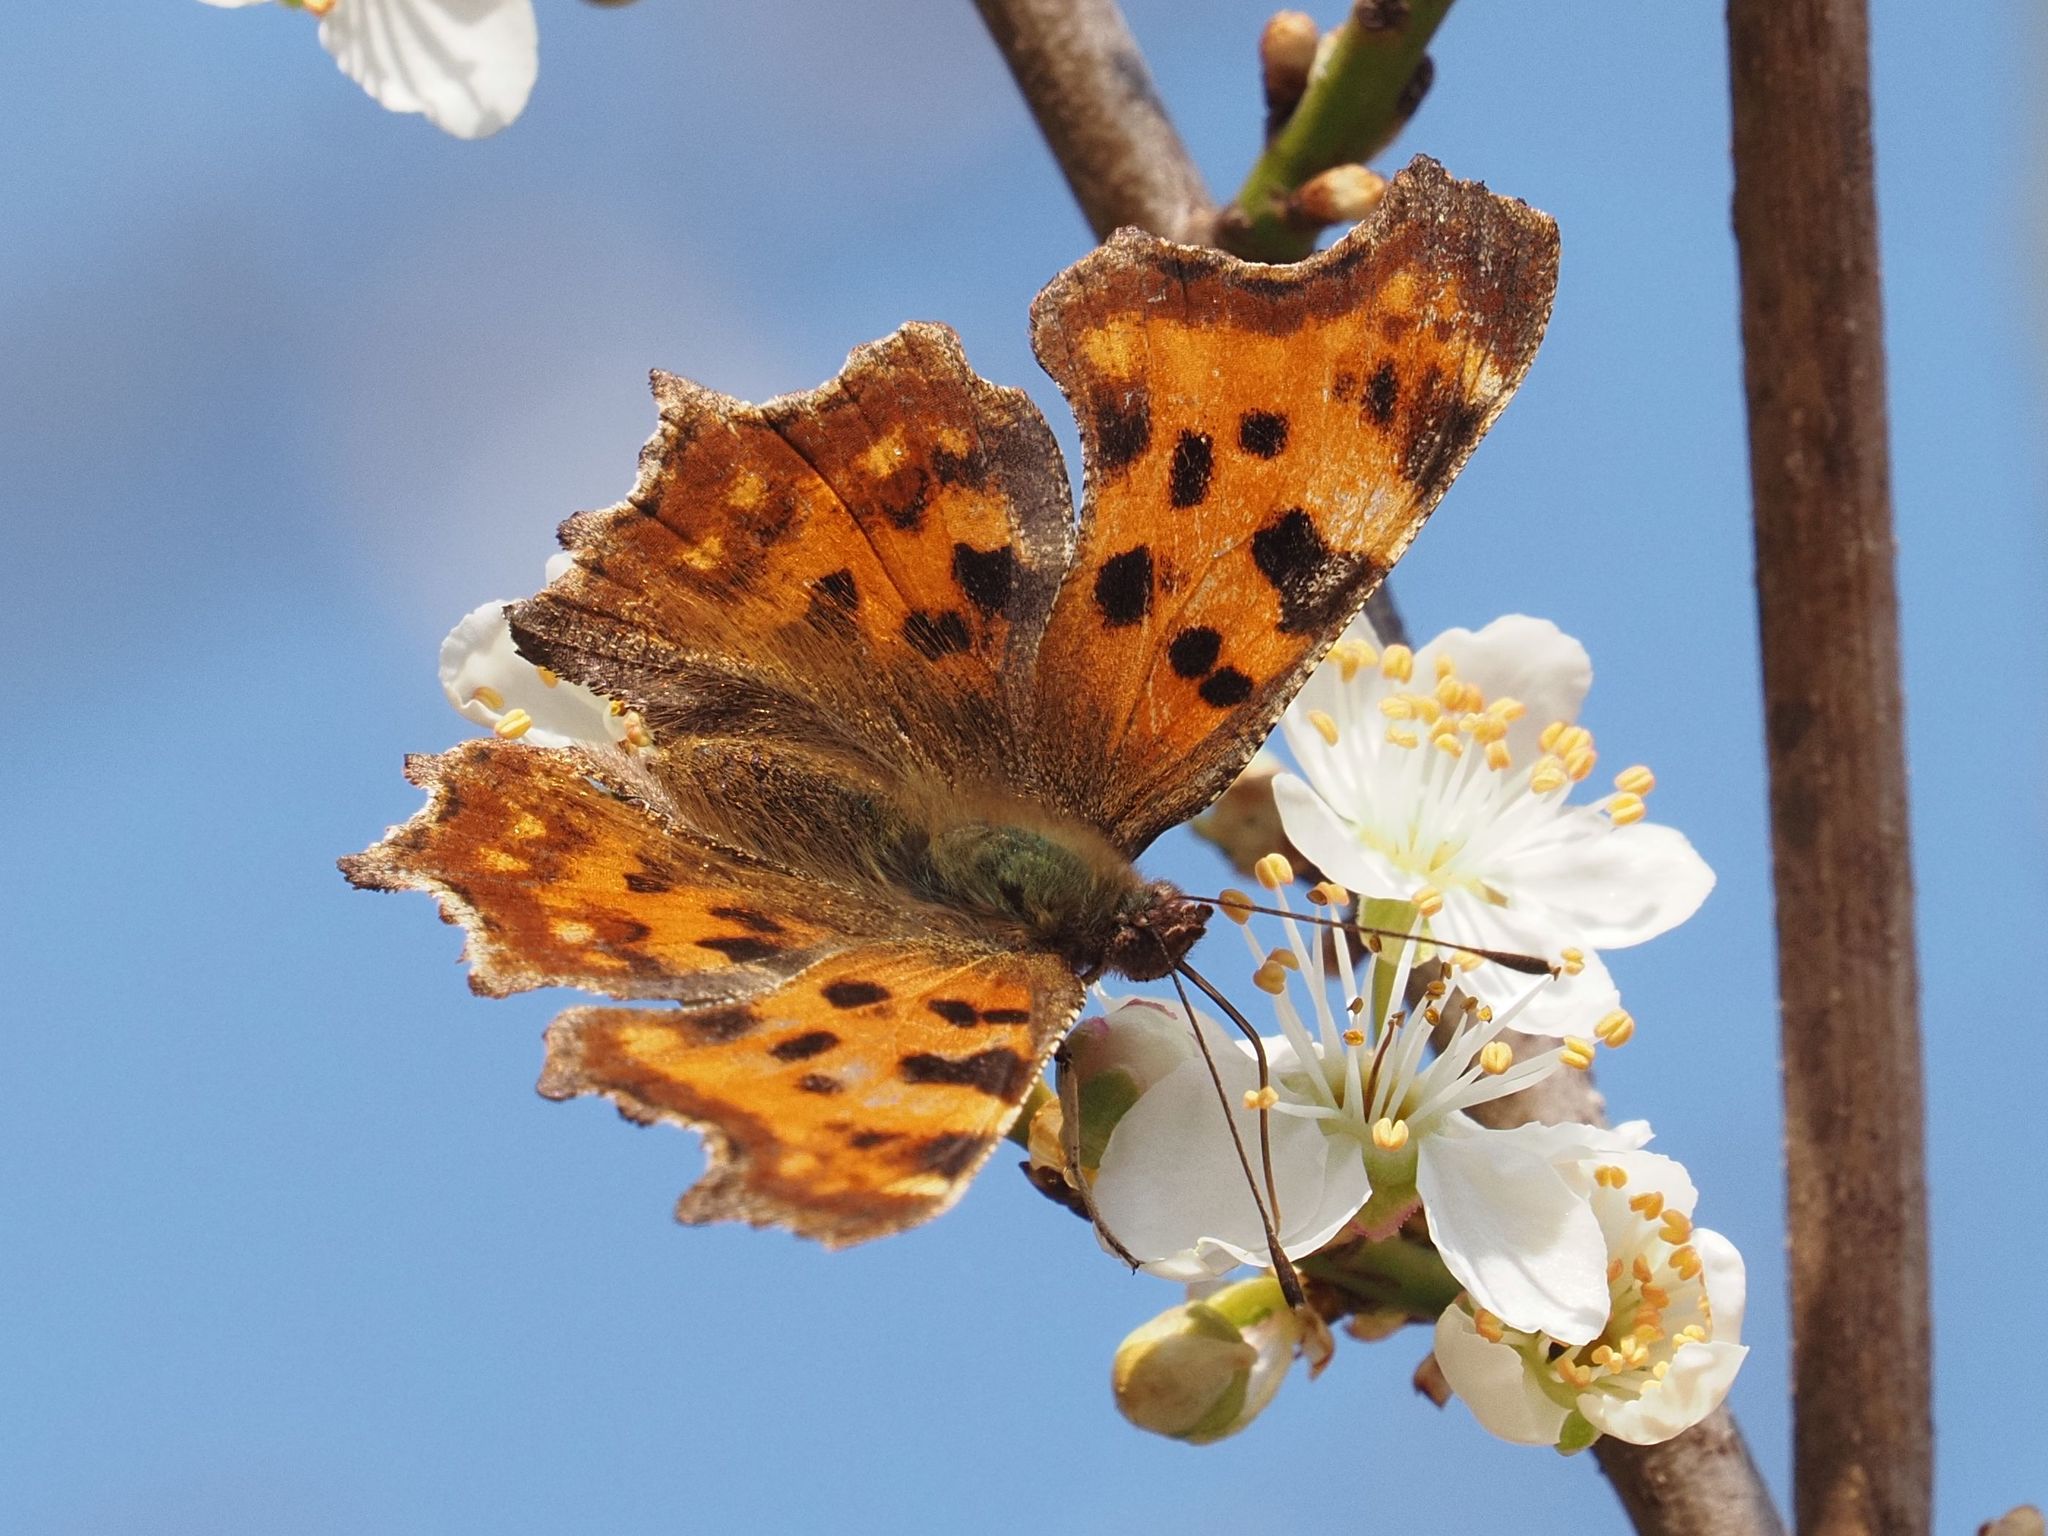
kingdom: Animalia
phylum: Arthropoda
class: Insecta
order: Lepidoptera
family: Nymphalidae
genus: Polygonia
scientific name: Polygonia c-album
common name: Comma
